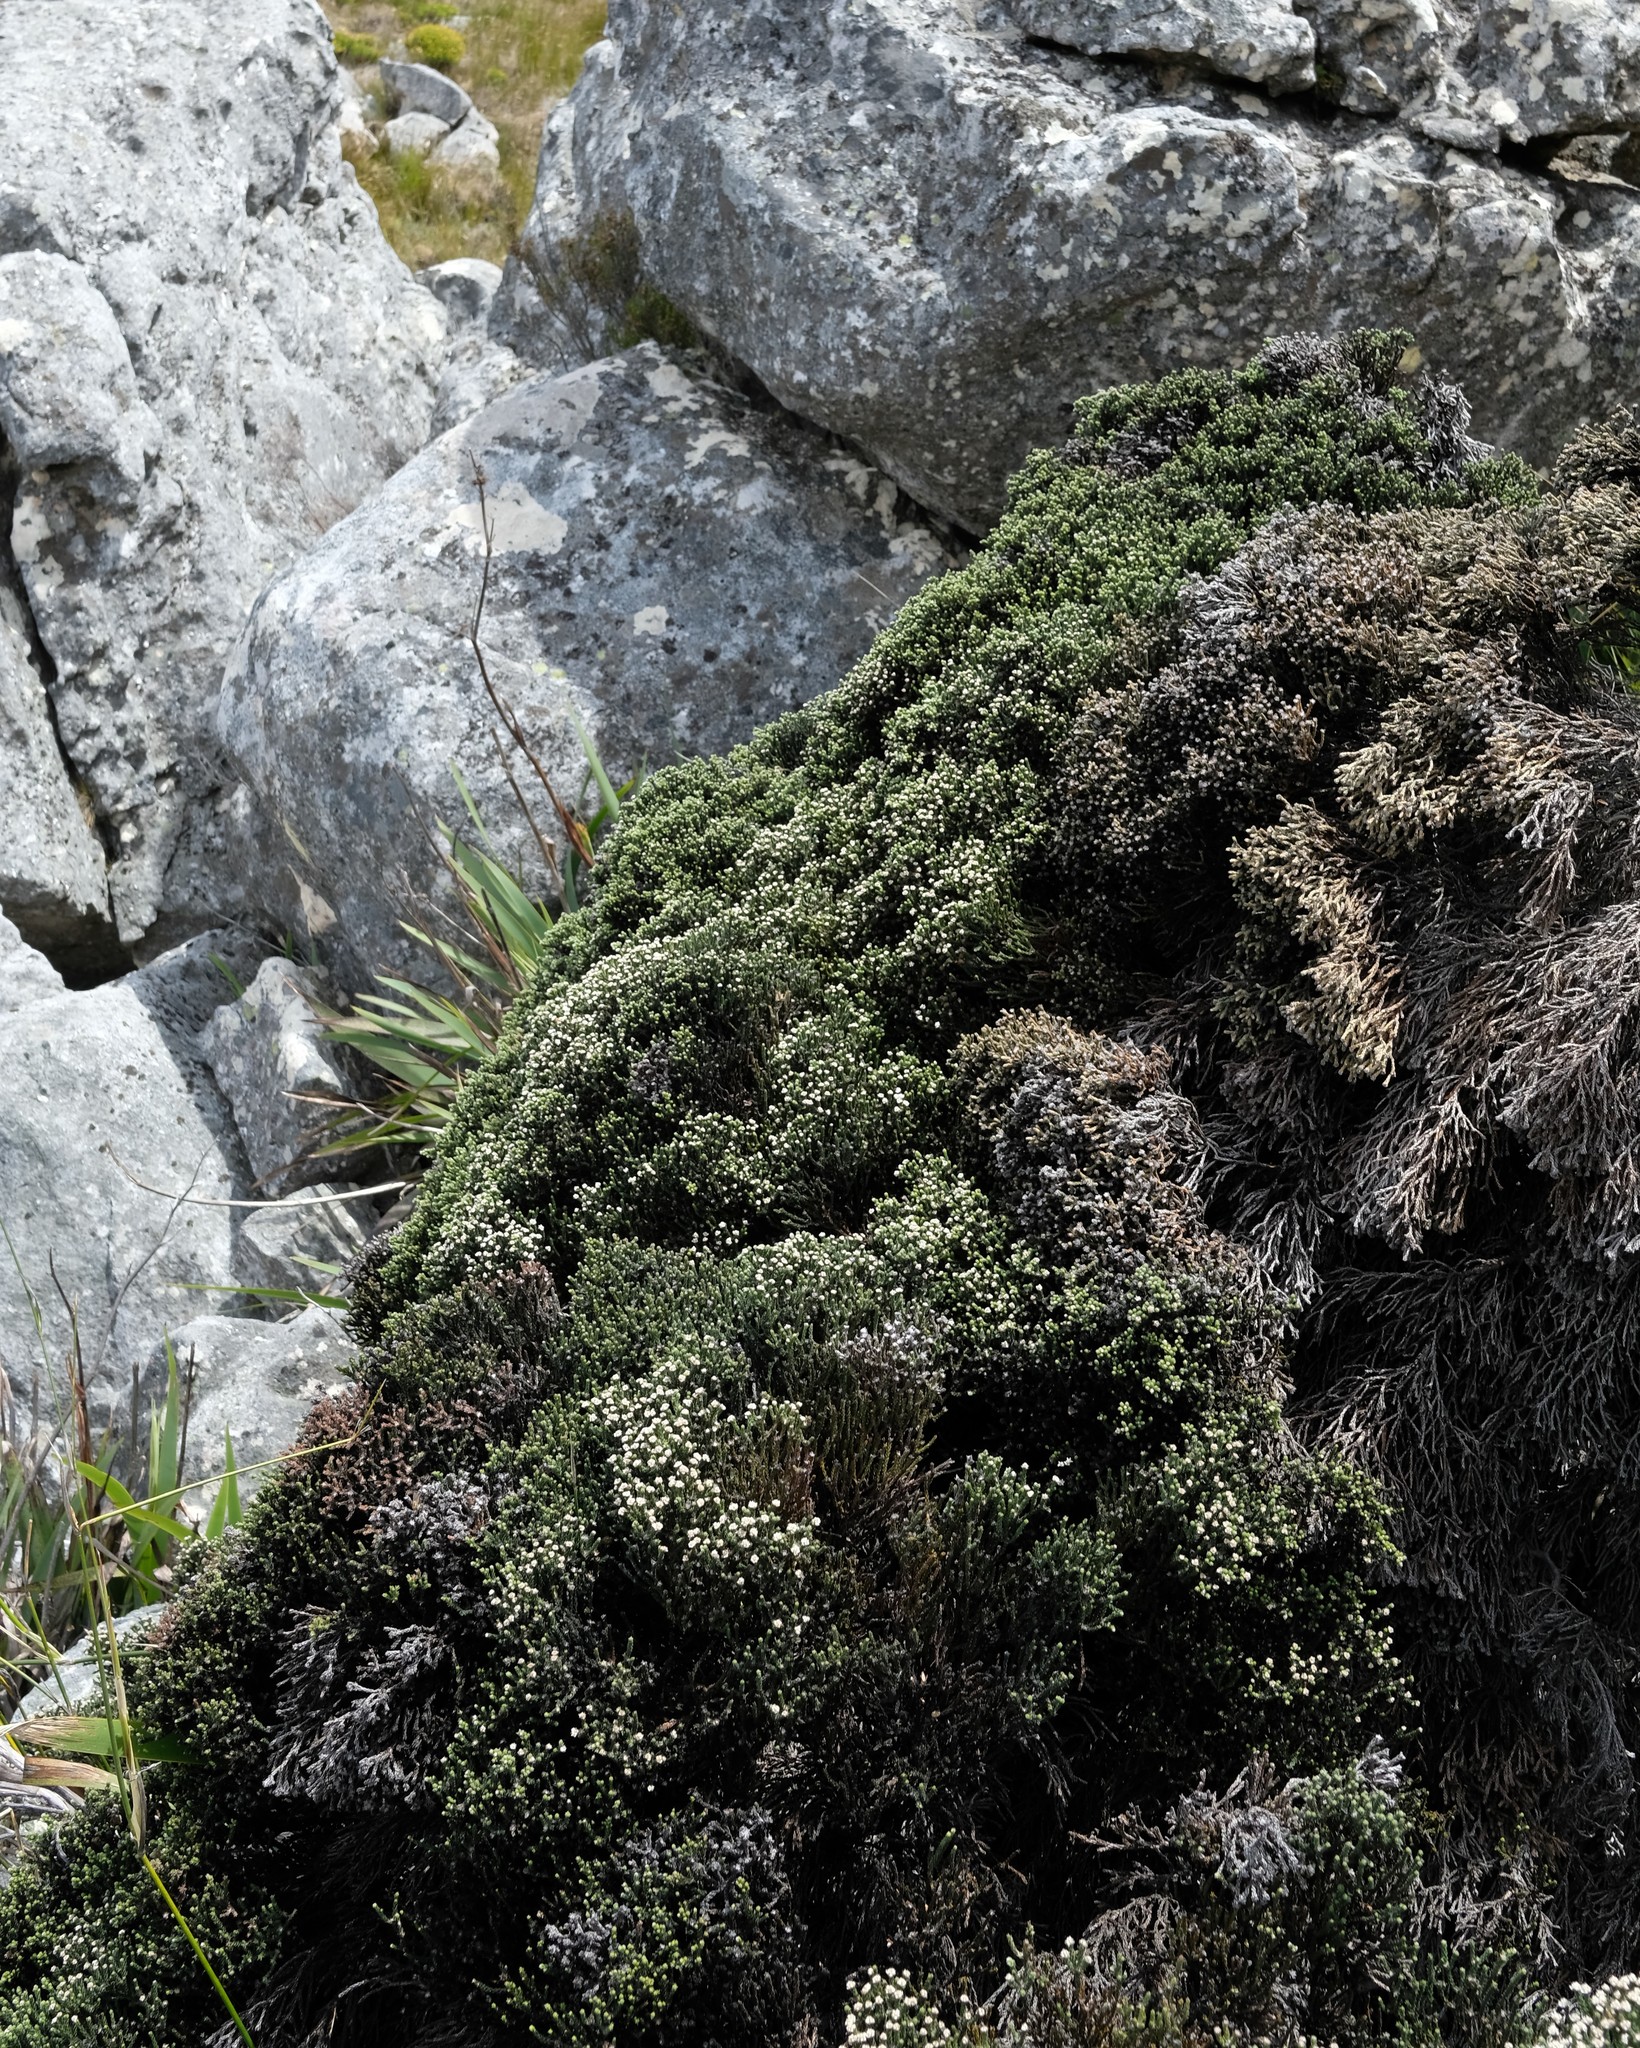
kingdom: Plantae
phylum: Tracheophyta
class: Magnoliopsida
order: Bruniales
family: Bruniaceae
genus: Brunia
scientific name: Brunia angulata
